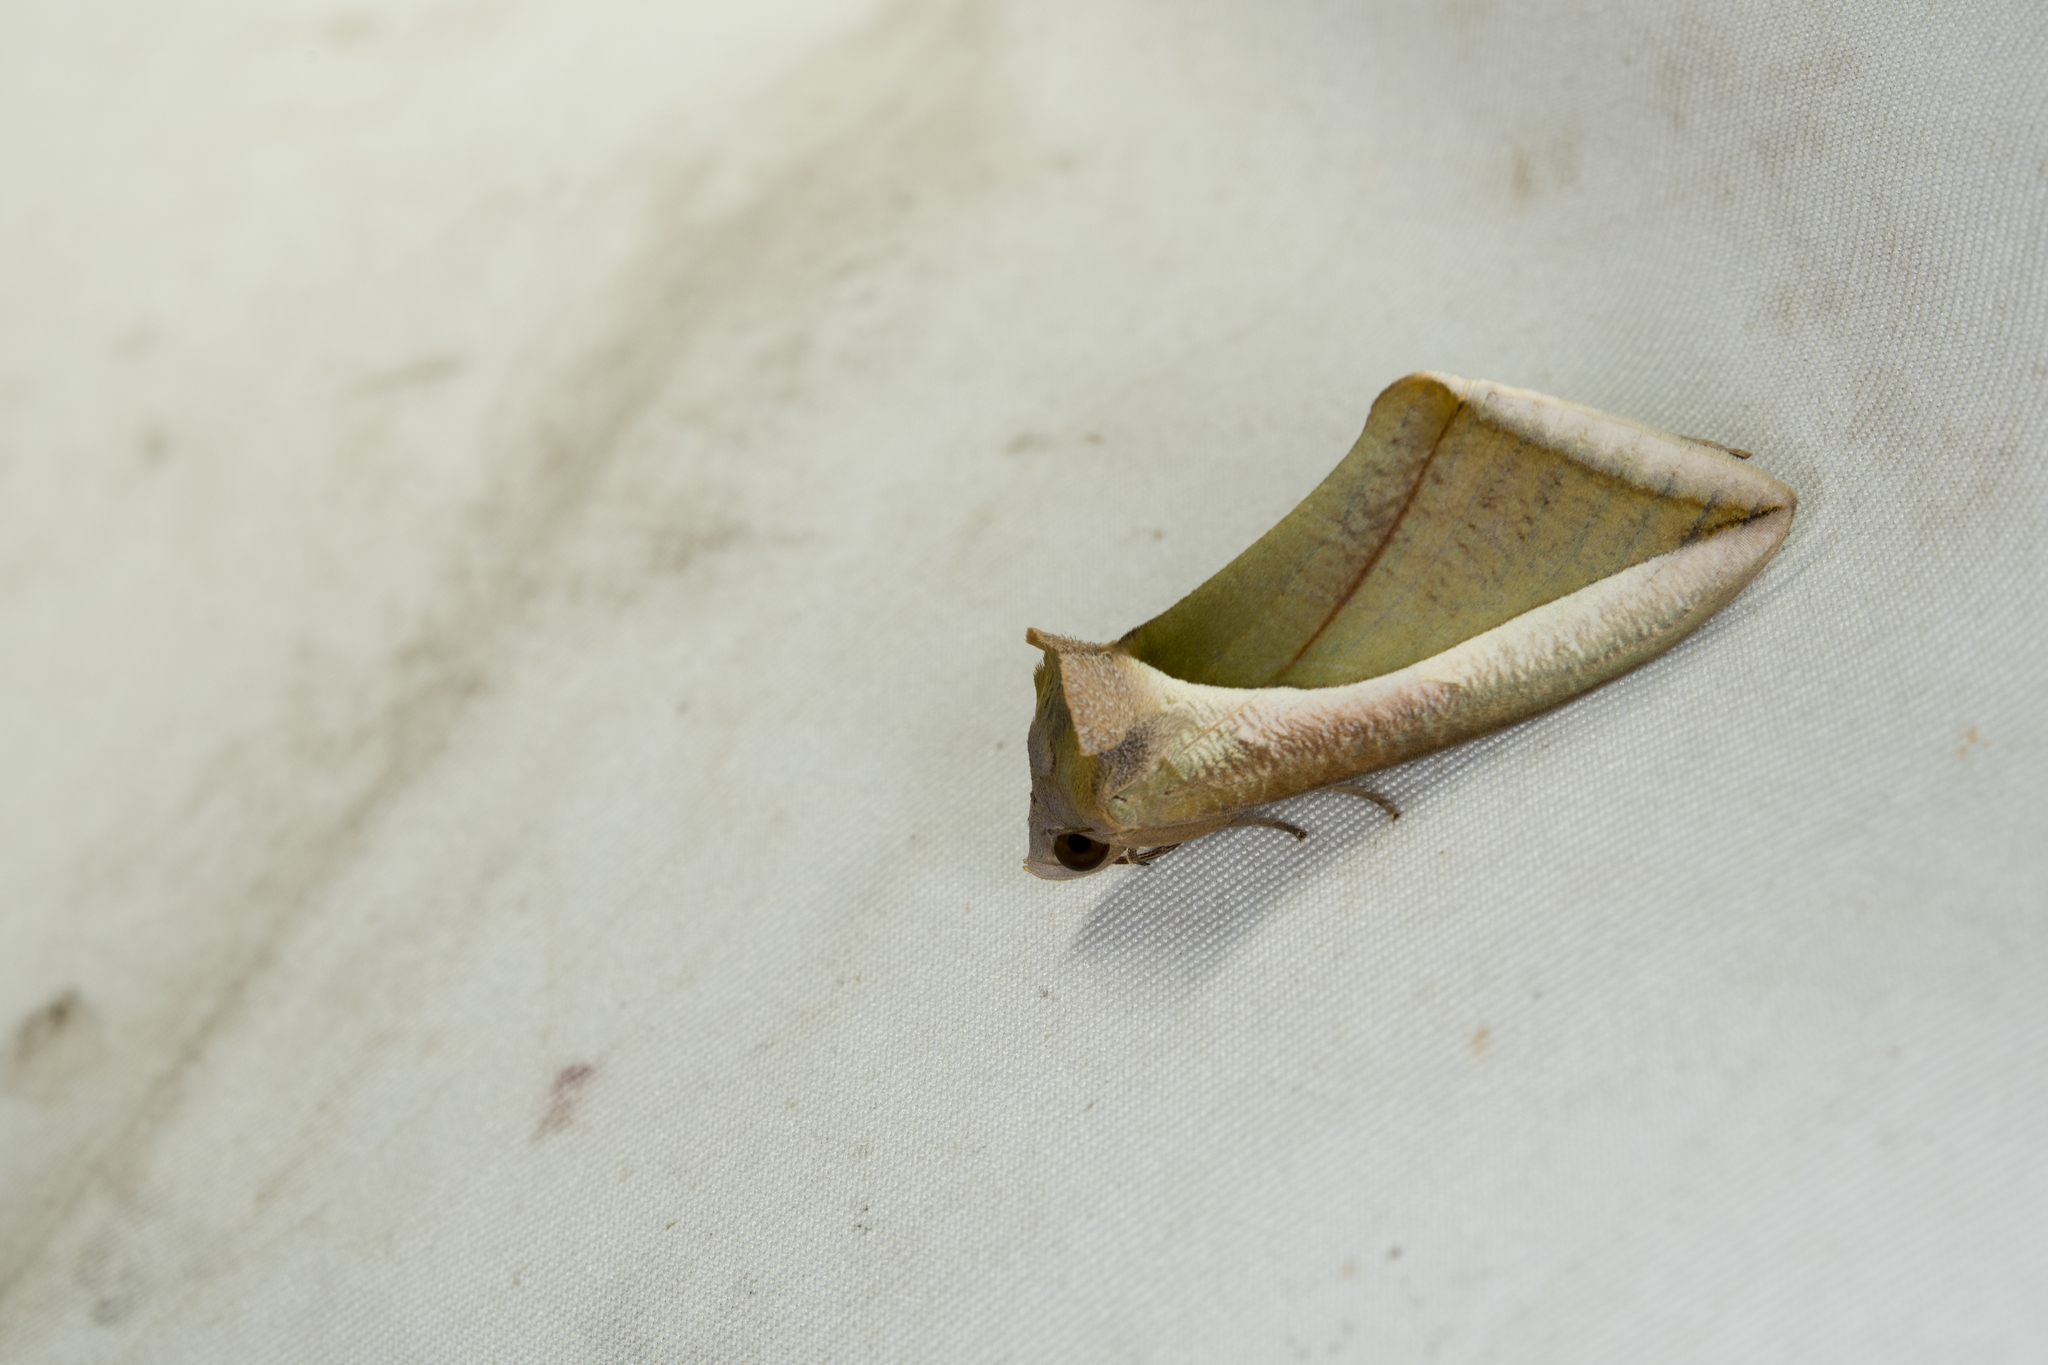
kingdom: Animalia
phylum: Arthropoda
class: Insecta
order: Lepidoptera
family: Erebidae
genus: Eudocima
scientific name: Eudocima salaminia
